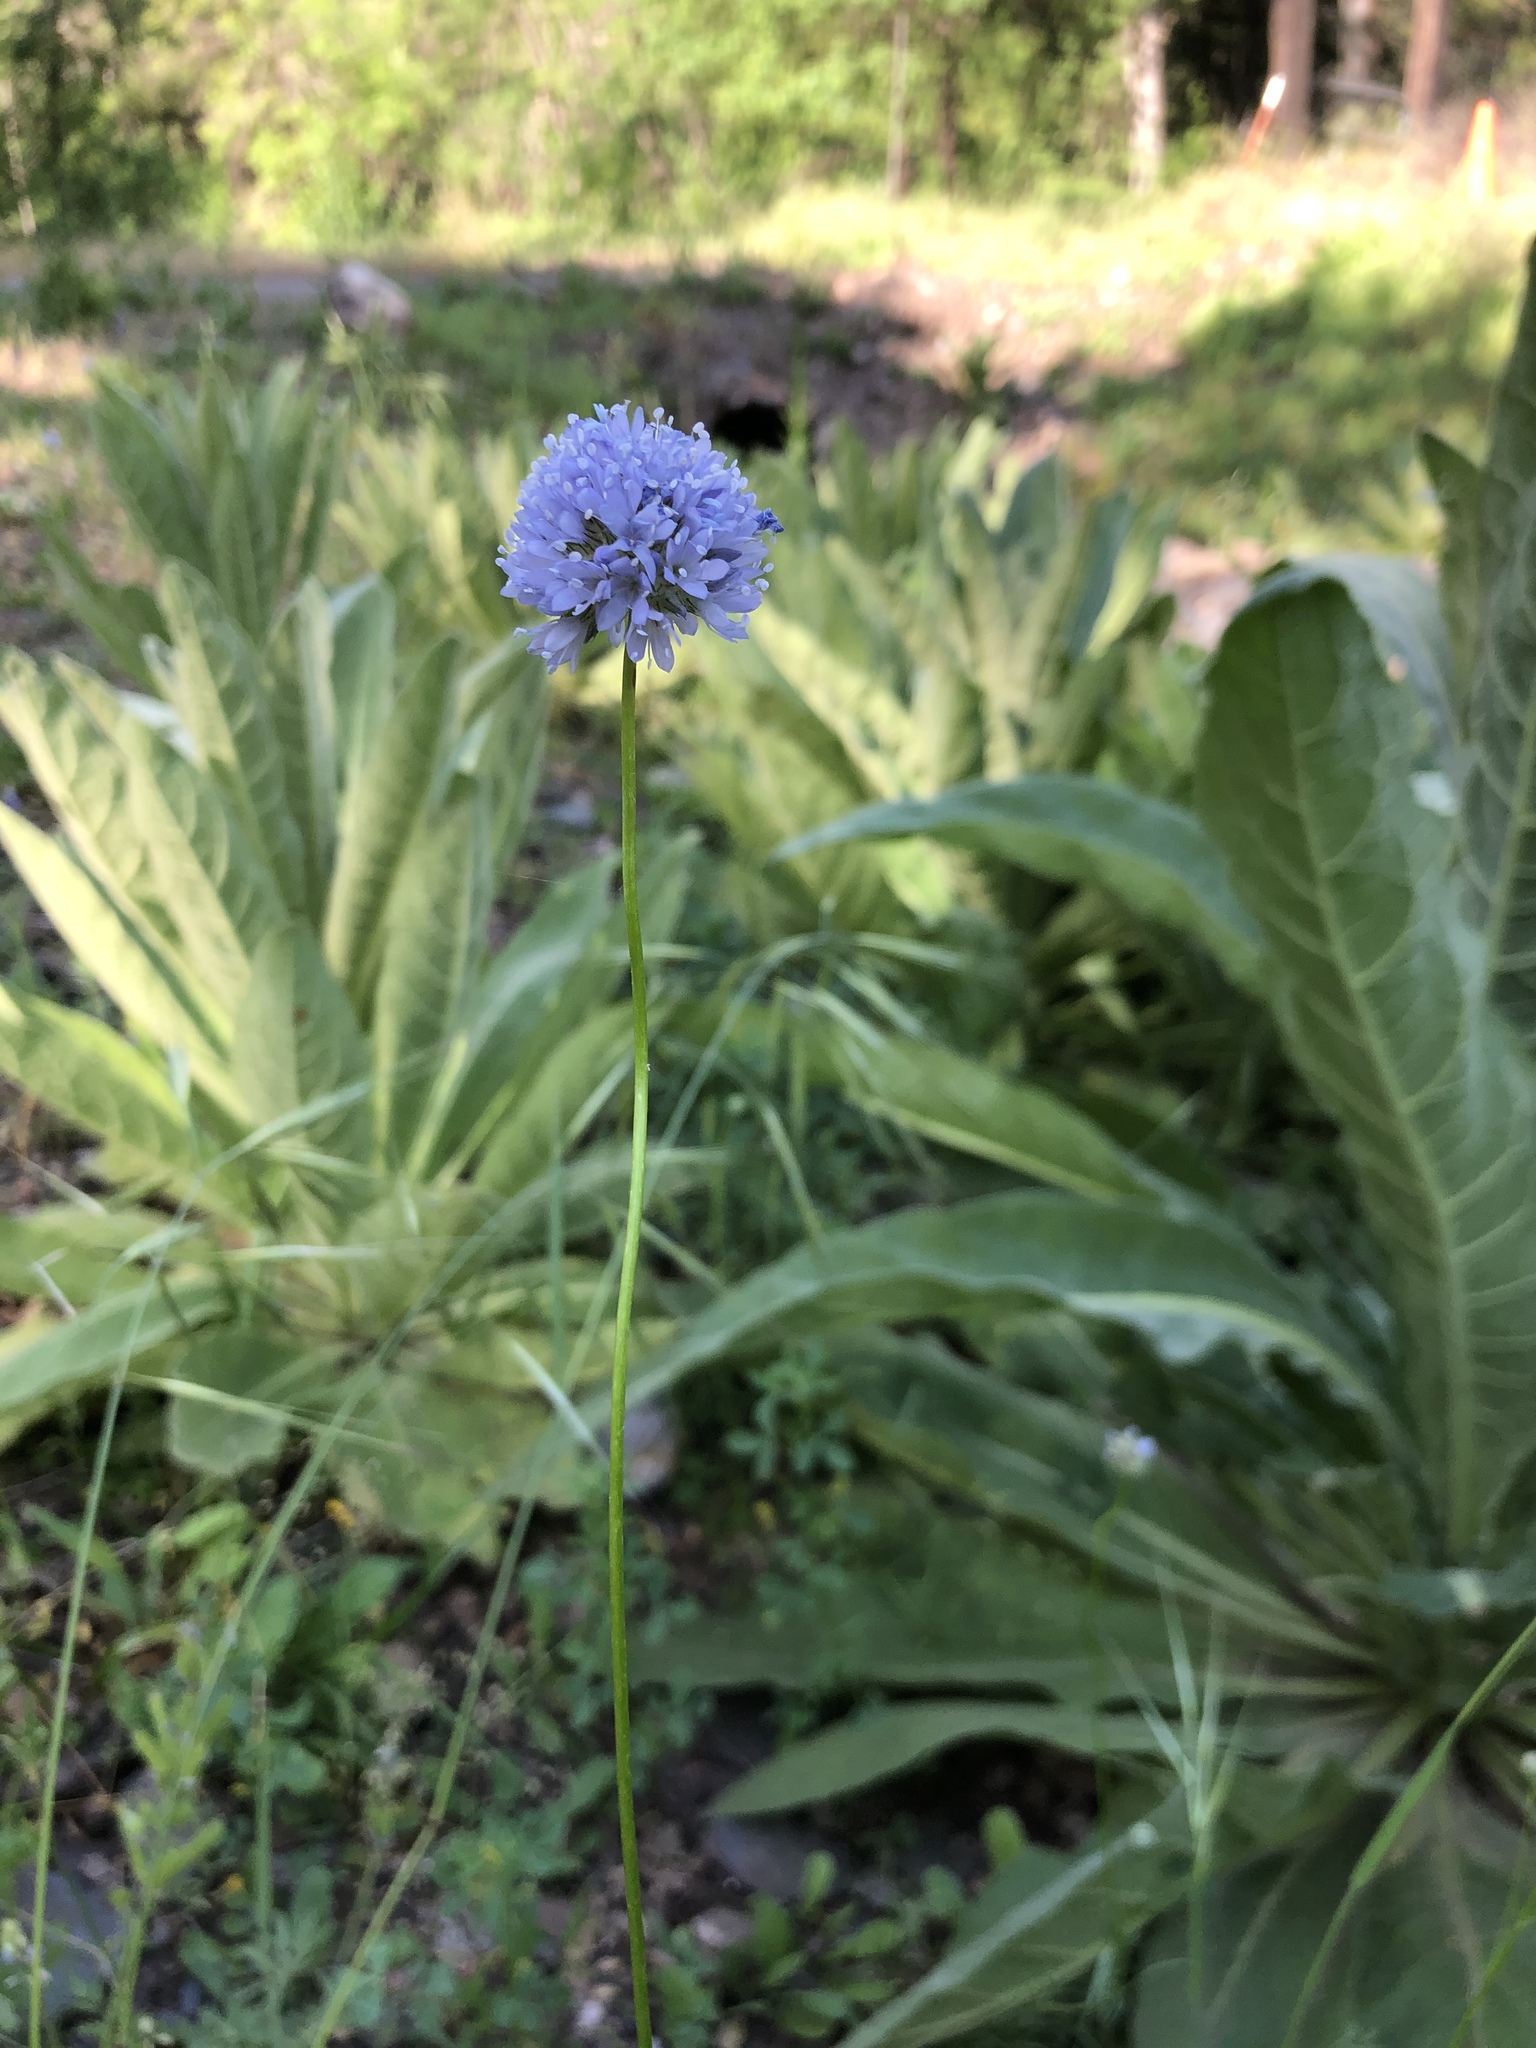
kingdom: Plantae
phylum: Tracheophyta
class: Magnoliopsida
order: Ericales
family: Polemoniaceae
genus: Gilia
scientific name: Gilia capitata
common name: Bluehead gilia
